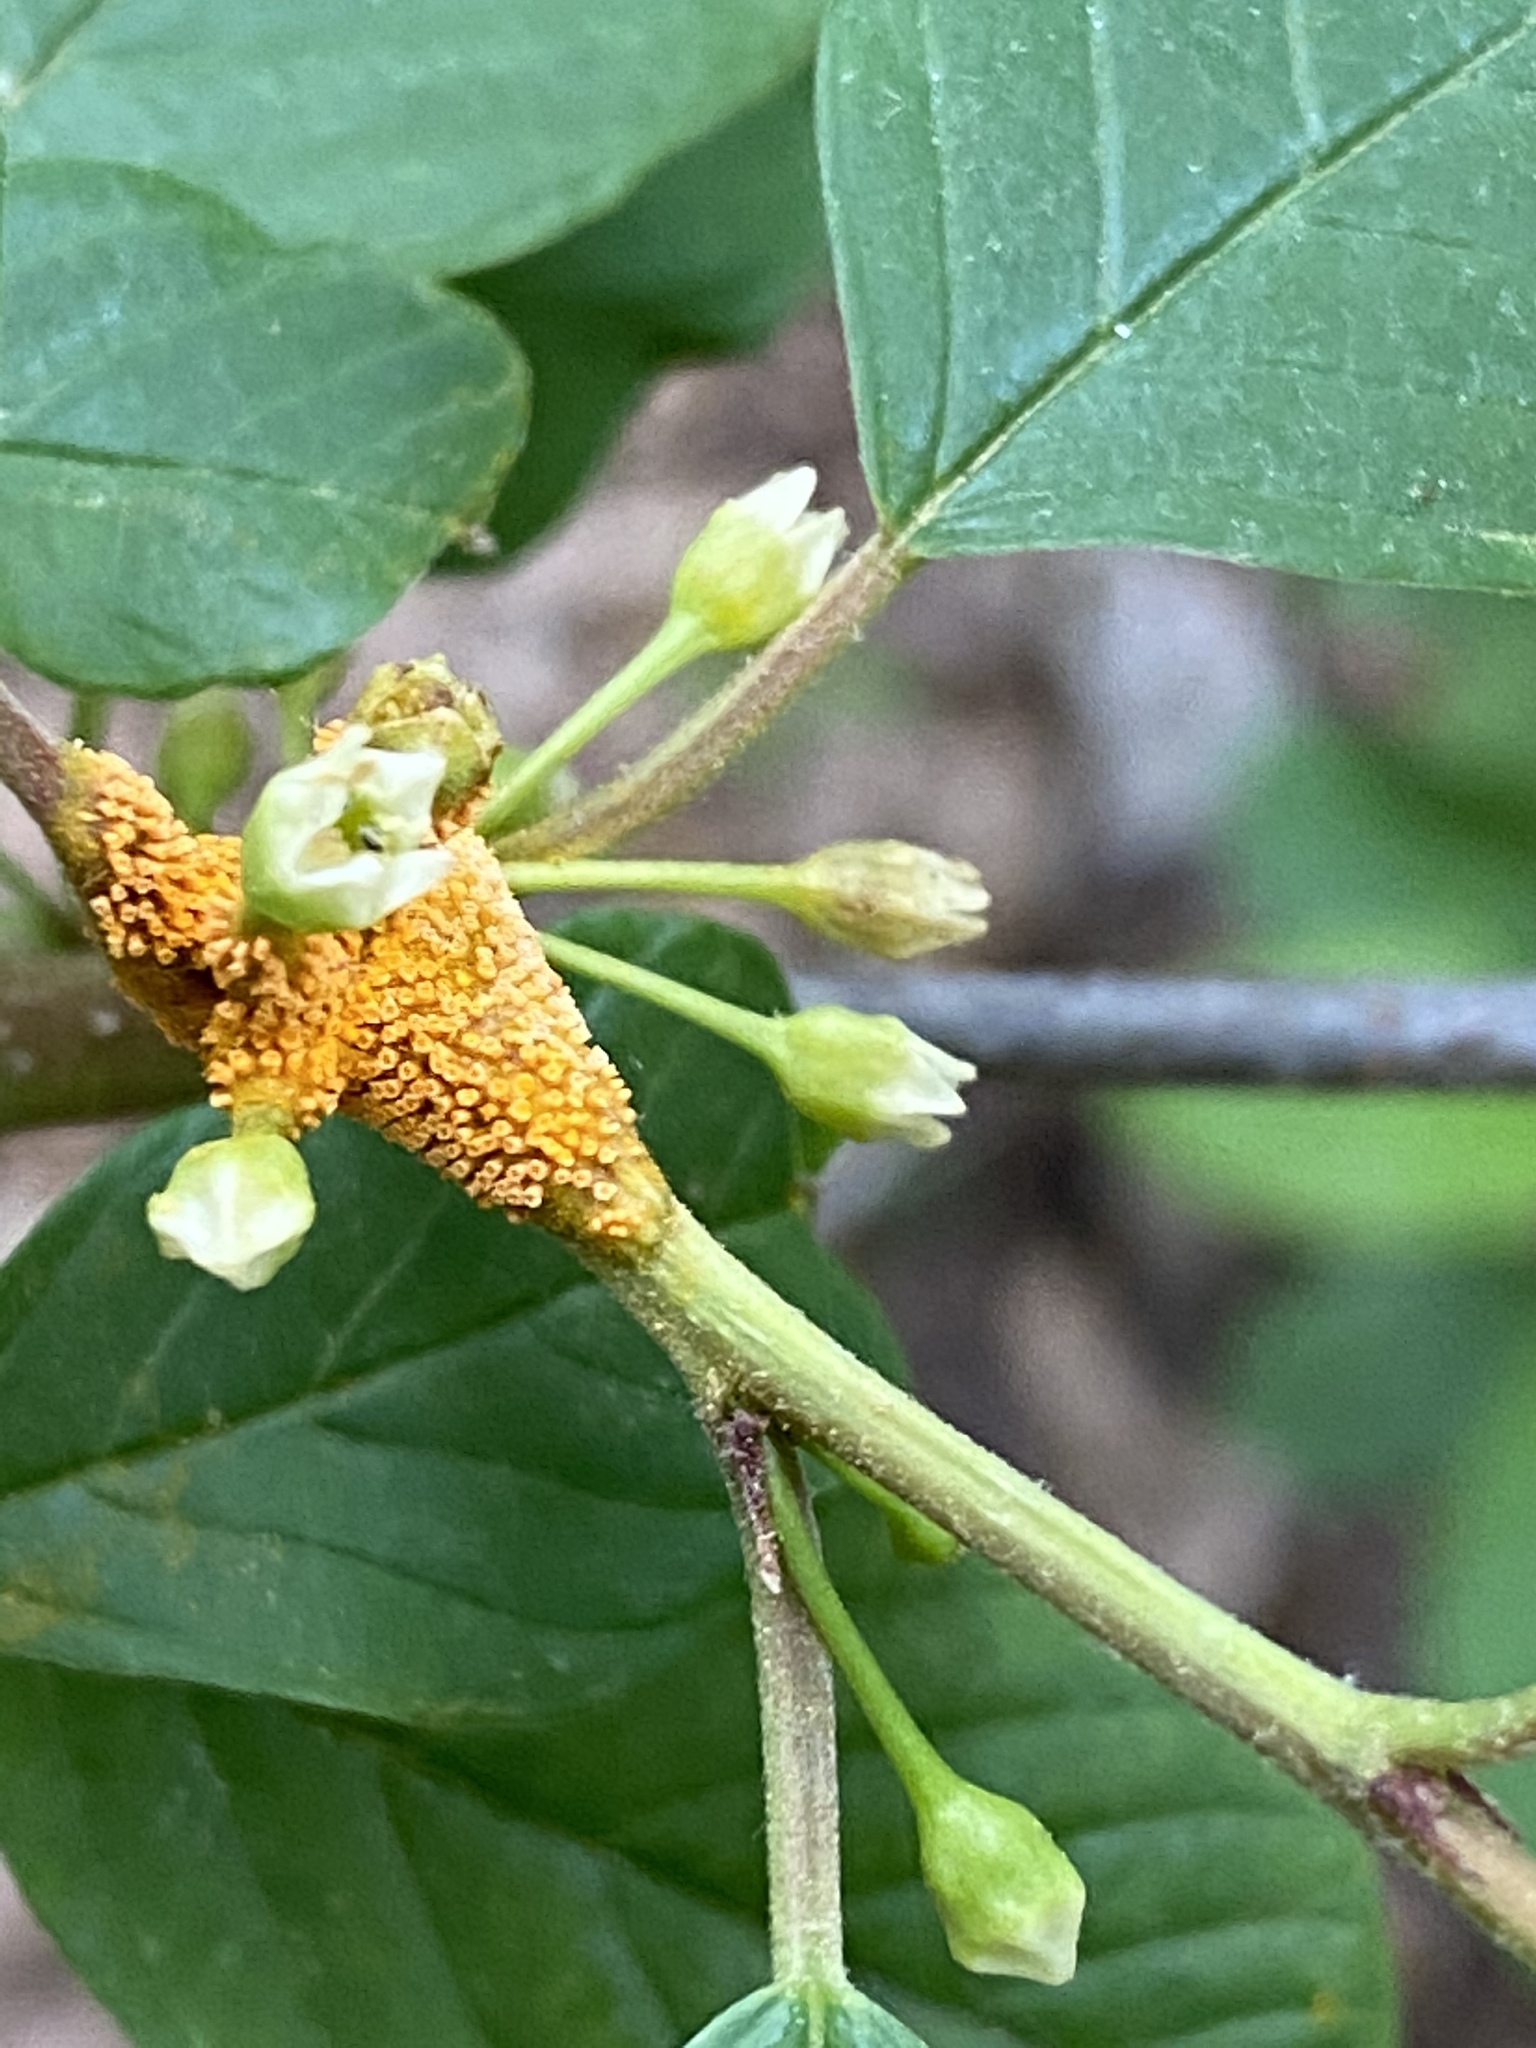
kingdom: Fungi
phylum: Basidiomycota
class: Pucciniomycetes
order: Pucciniales
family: Pucciniaceae
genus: Puccinia
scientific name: Puccinia coronata
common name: Crown rust
